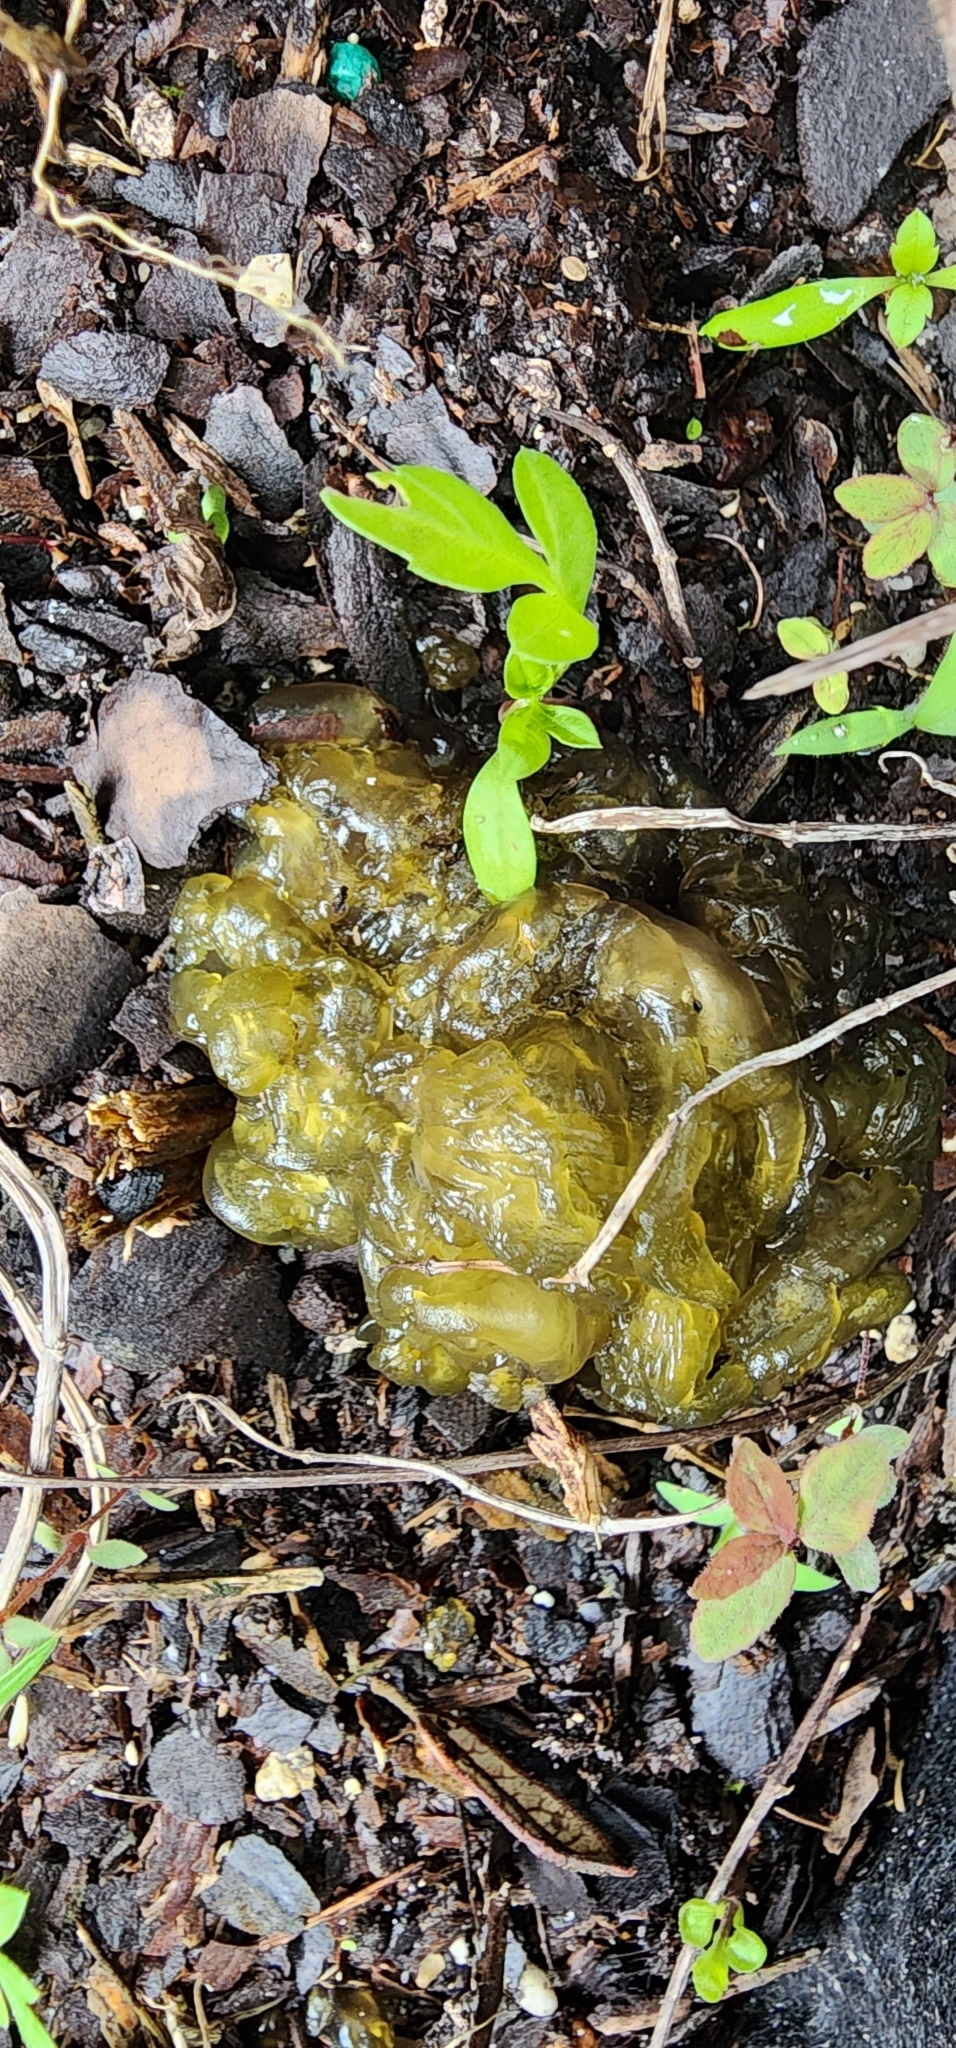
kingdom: Bacteria
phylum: Cyanobacteria
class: Cyanobacteriia
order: Cyanobacteriales
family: Nostocaceae
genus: Nostoc
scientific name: Nostoc commune
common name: Star jelly
